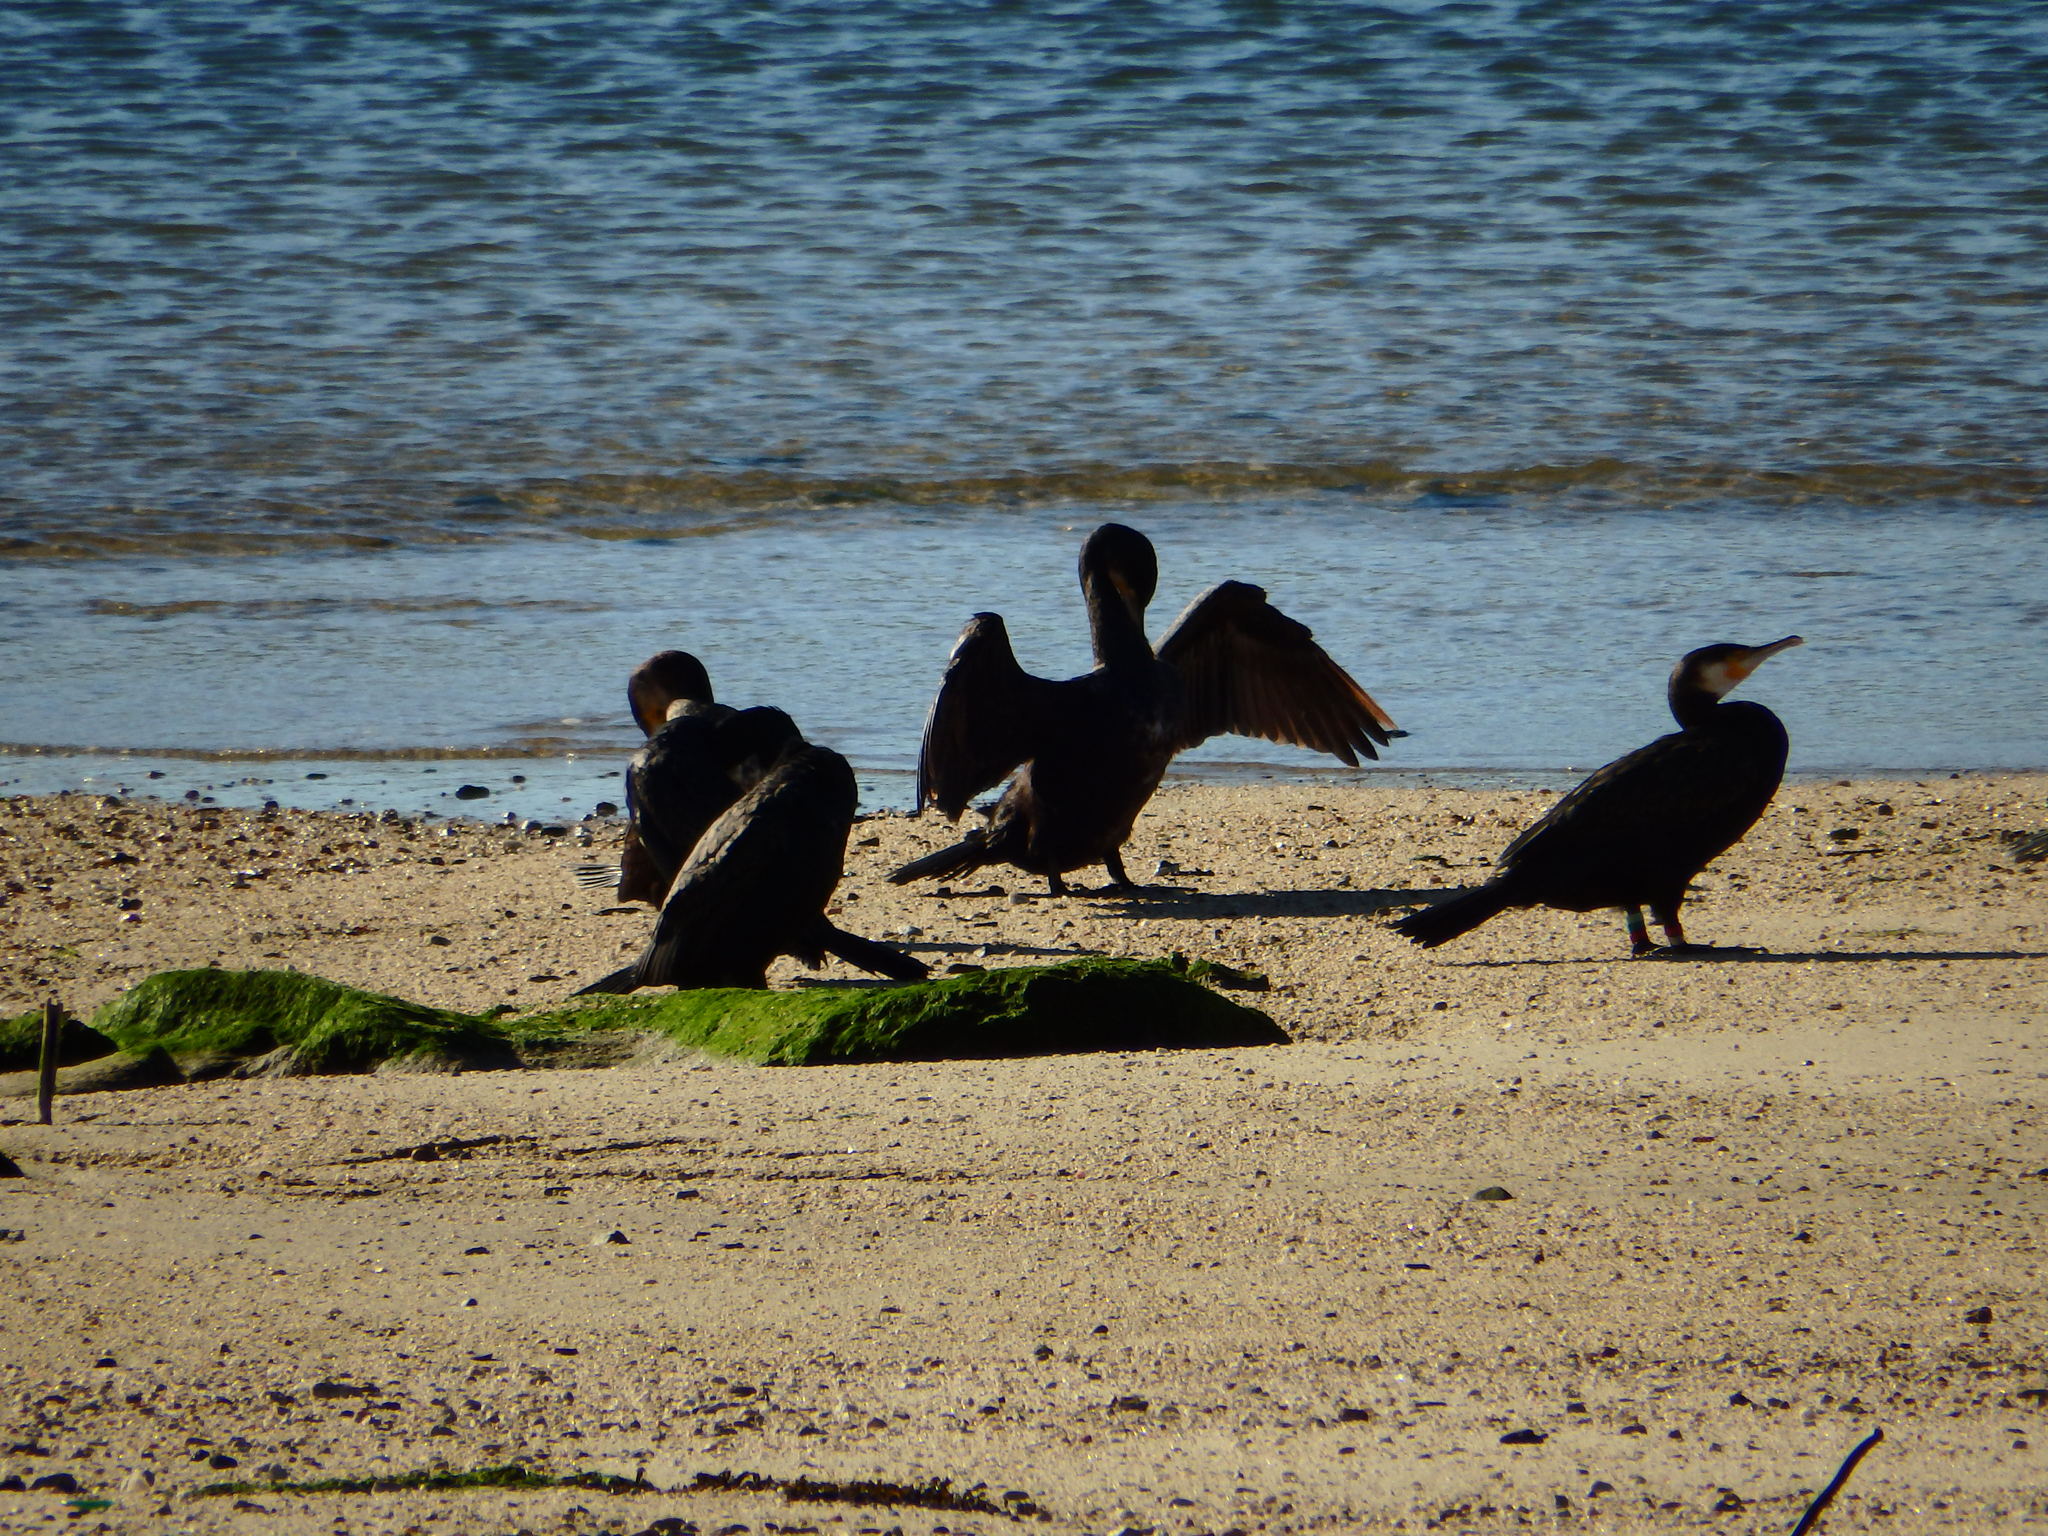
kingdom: Animalia
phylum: Chordata
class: Aves
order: Suliformes
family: Phalacrocoracidae
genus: Phalacrocorax
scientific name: Phalacrocorax carbo
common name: Great cormorant
